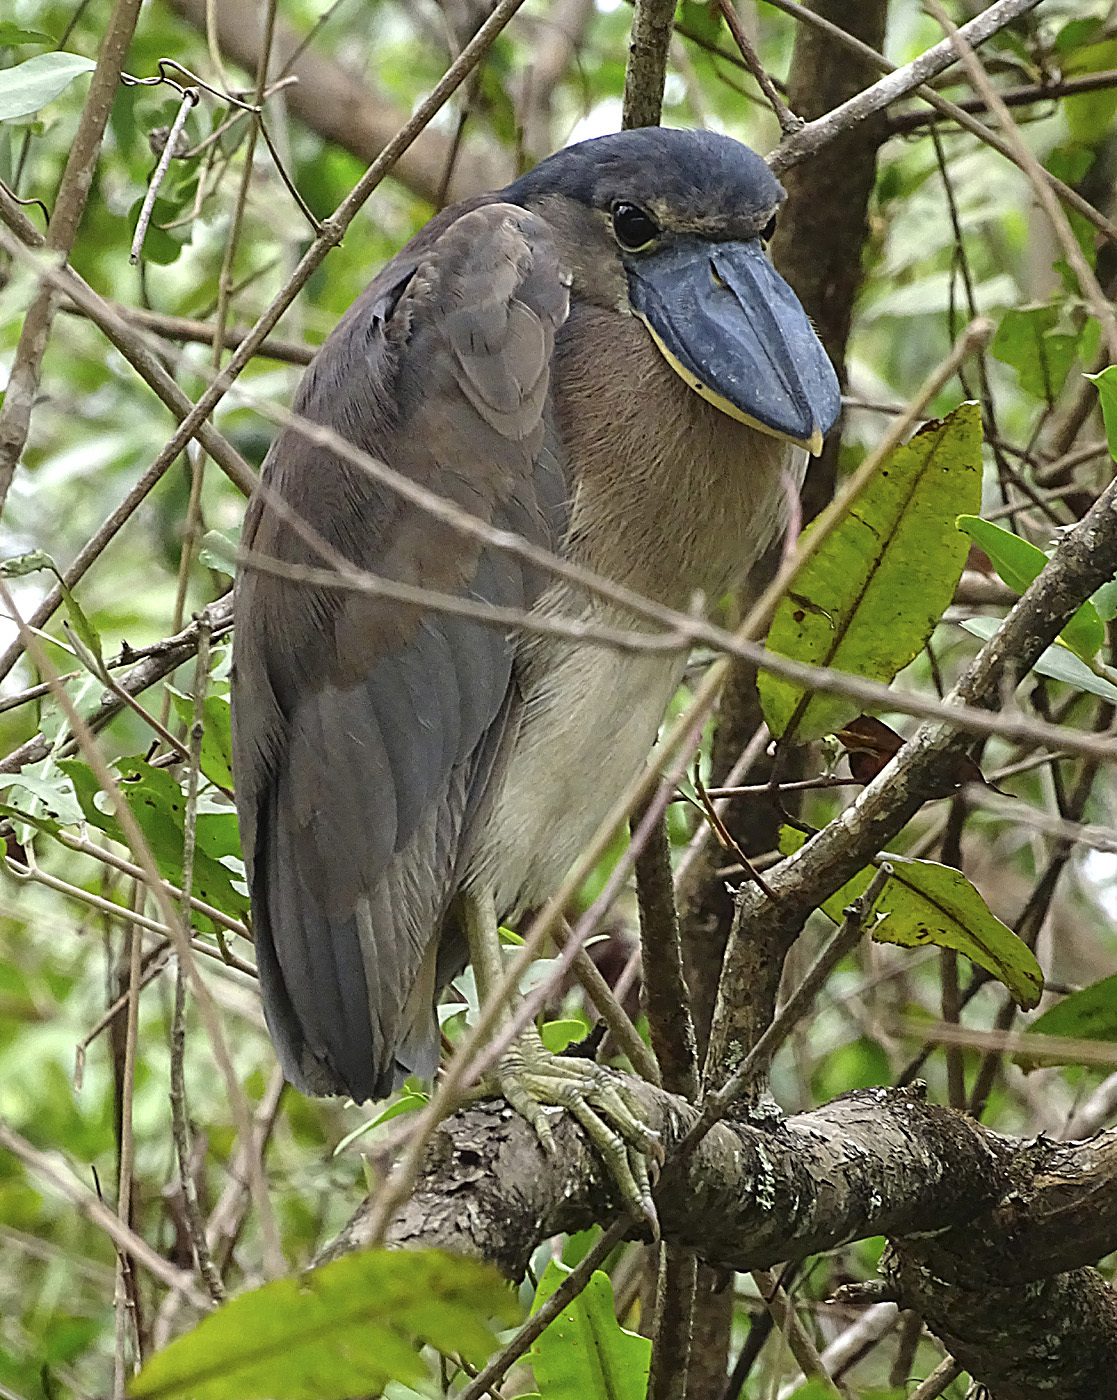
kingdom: Animalia
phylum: Chordata
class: Aves
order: Pelecaniformes
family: Ardeidae
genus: Cochlearius
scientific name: Cochlearius cochlearius
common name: Boat-billed heron
